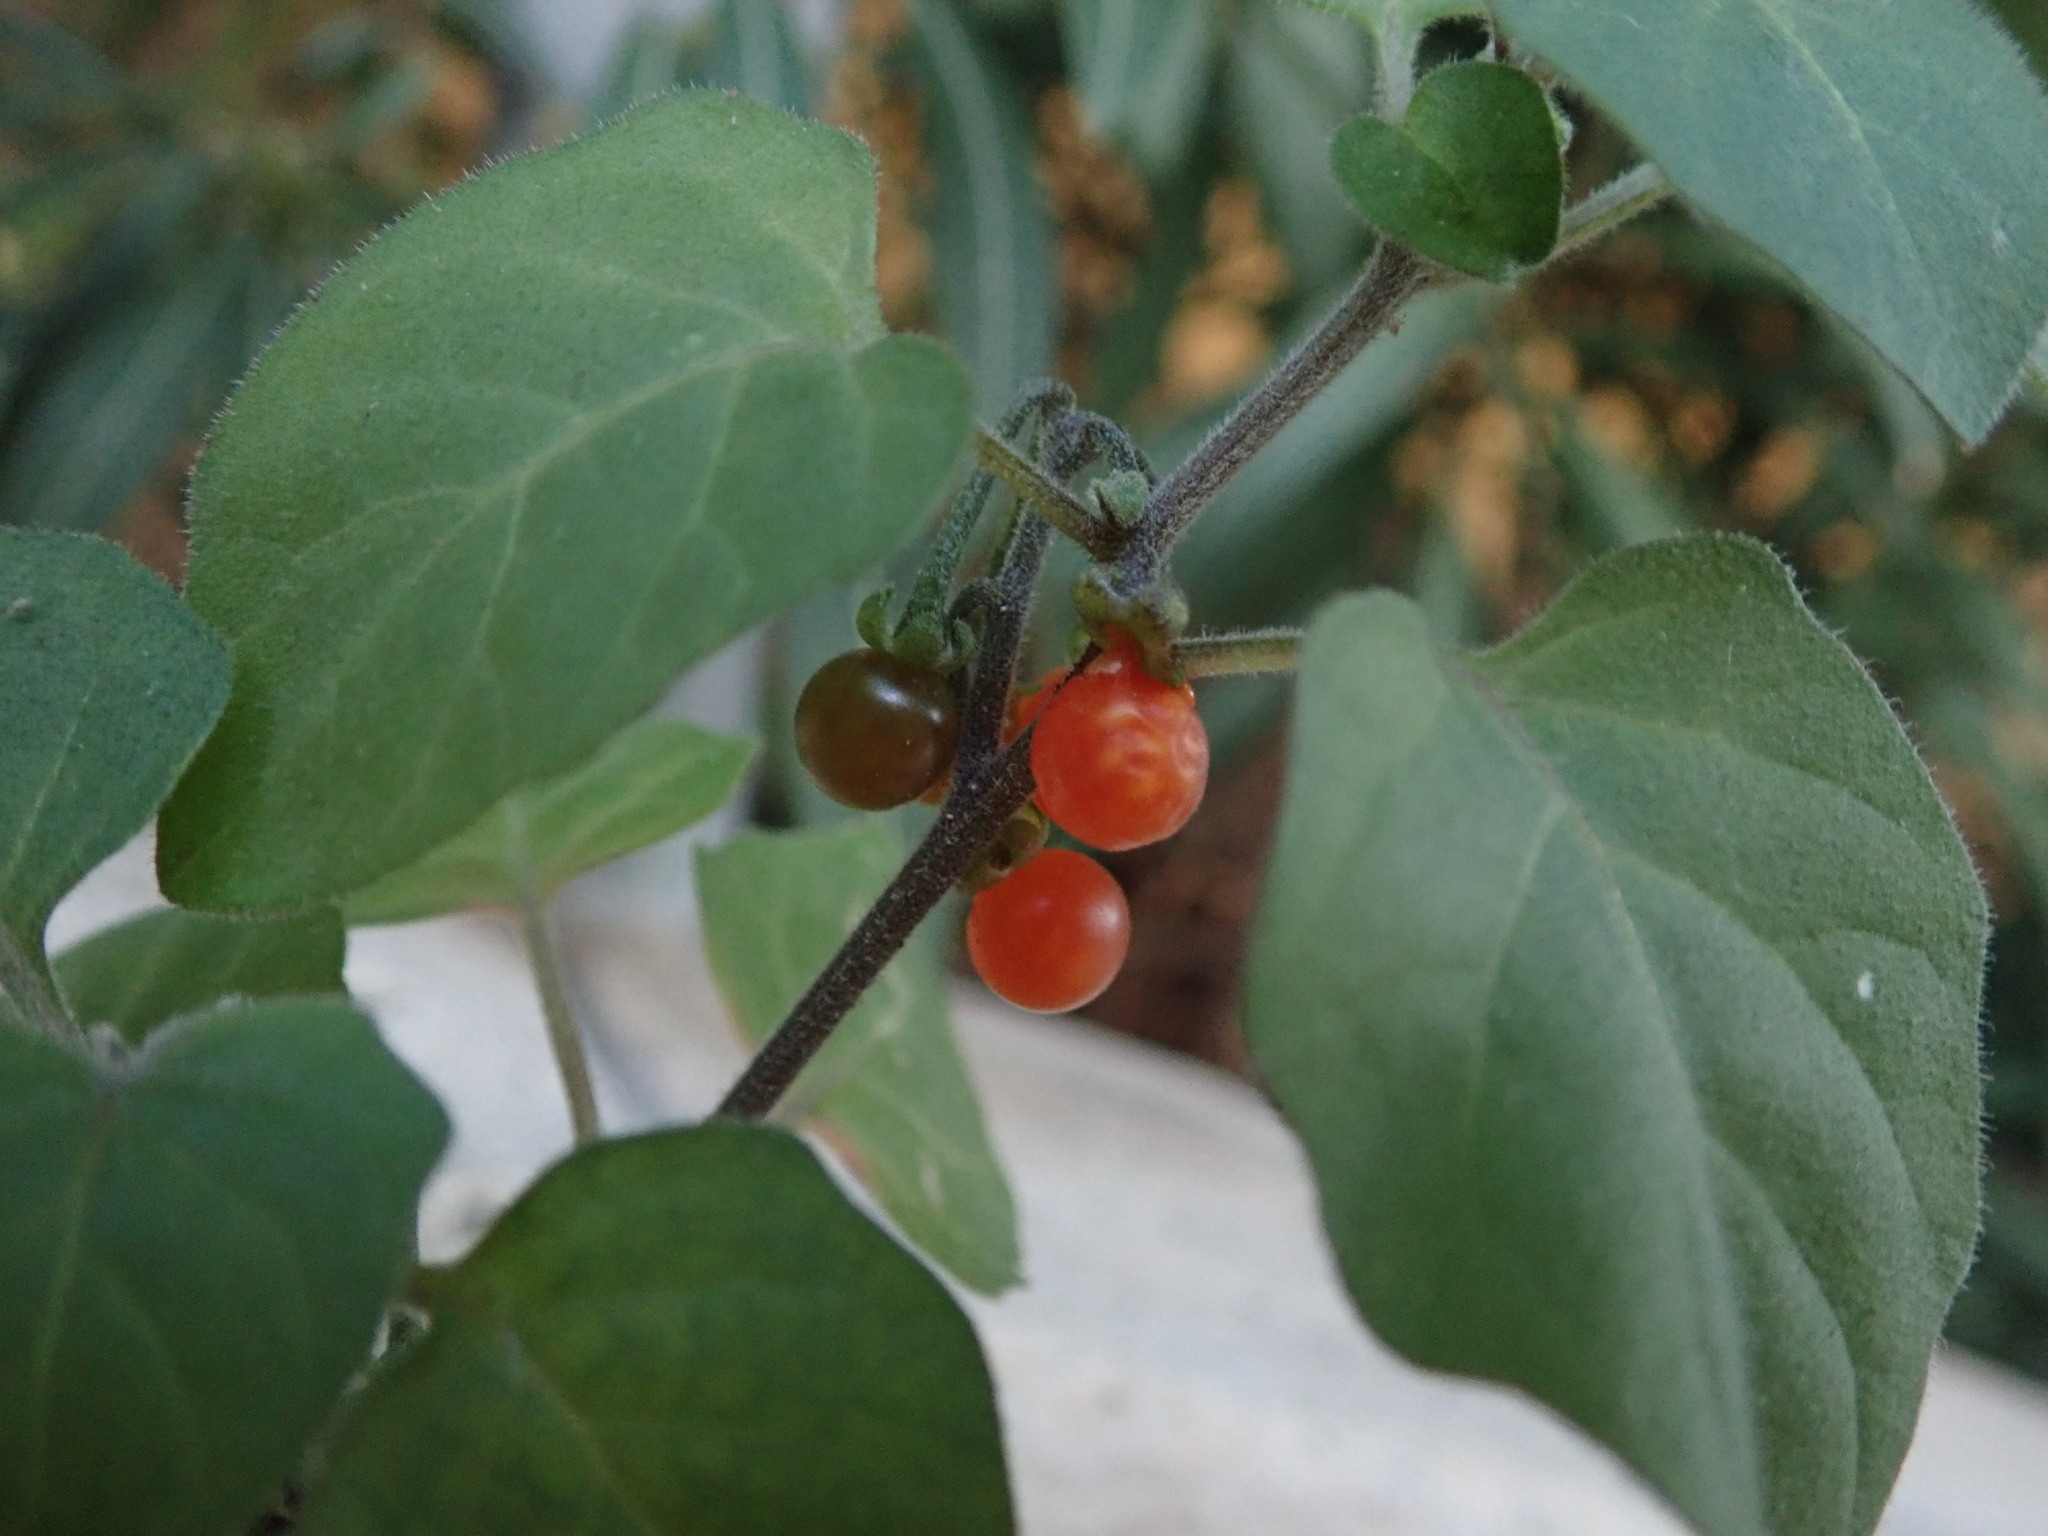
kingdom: Plantae
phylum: Tracheophyta
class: Magnoliopsida
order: Solanales
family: Solanaceae
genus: Solanum
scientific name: Solanum villosum
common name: Red nightshade
